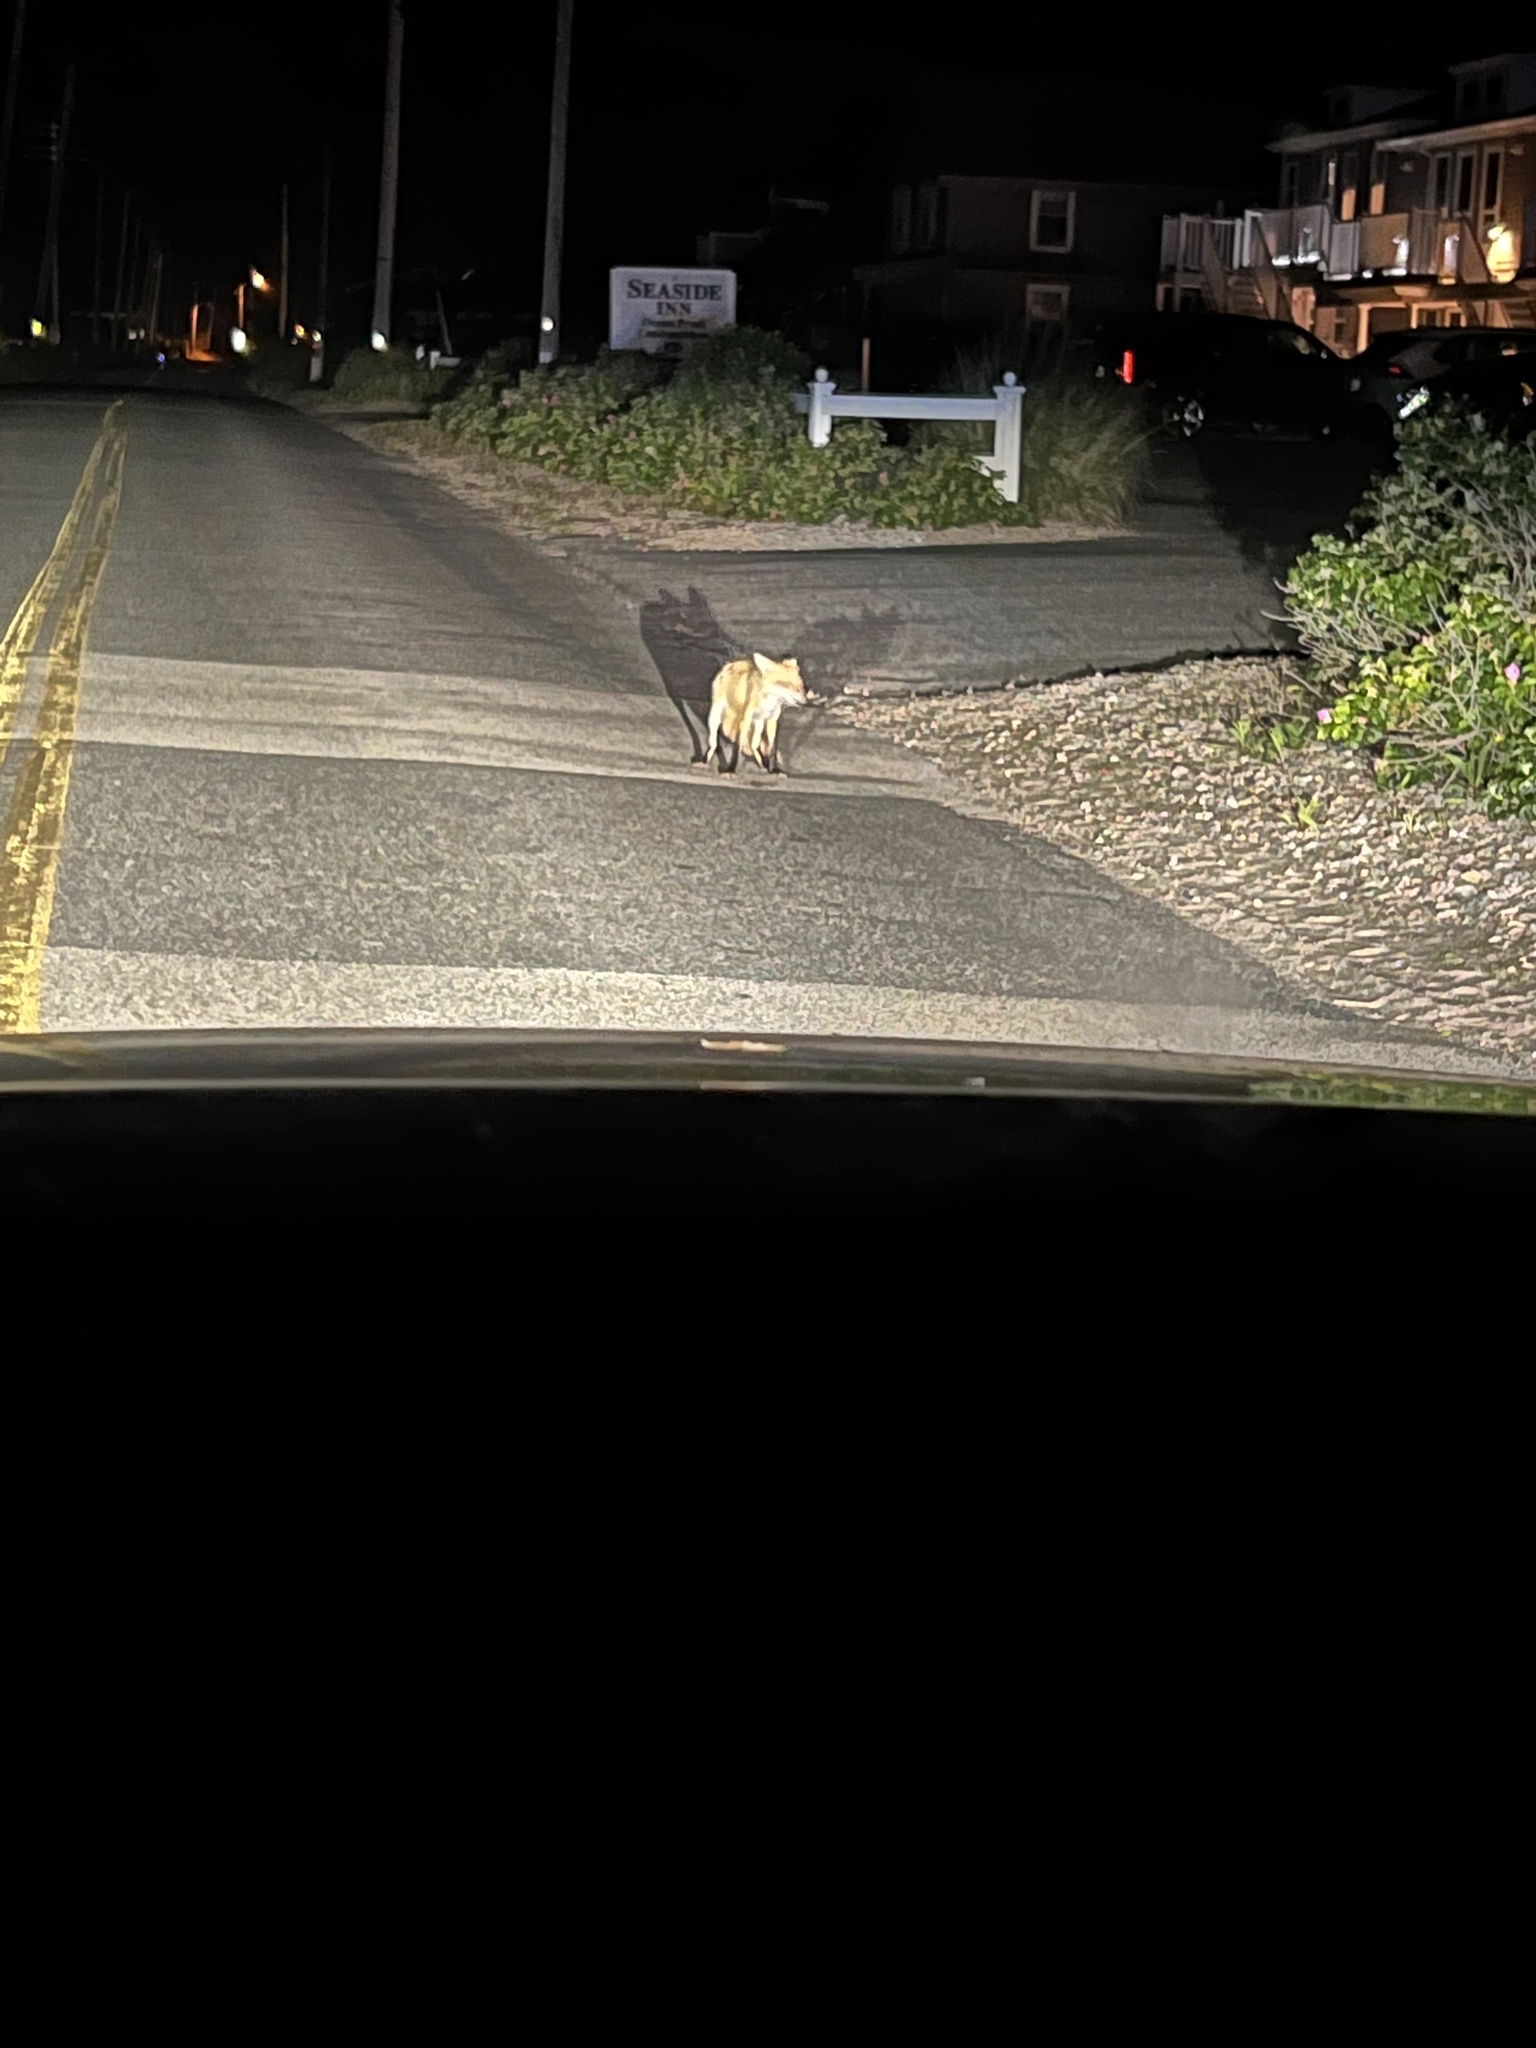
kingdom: Animalia
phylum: Chordata
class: Mammalia
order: Carnivora
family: Canidae
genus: Vulpes
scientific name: Vulpes vulpes
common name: Red fox
